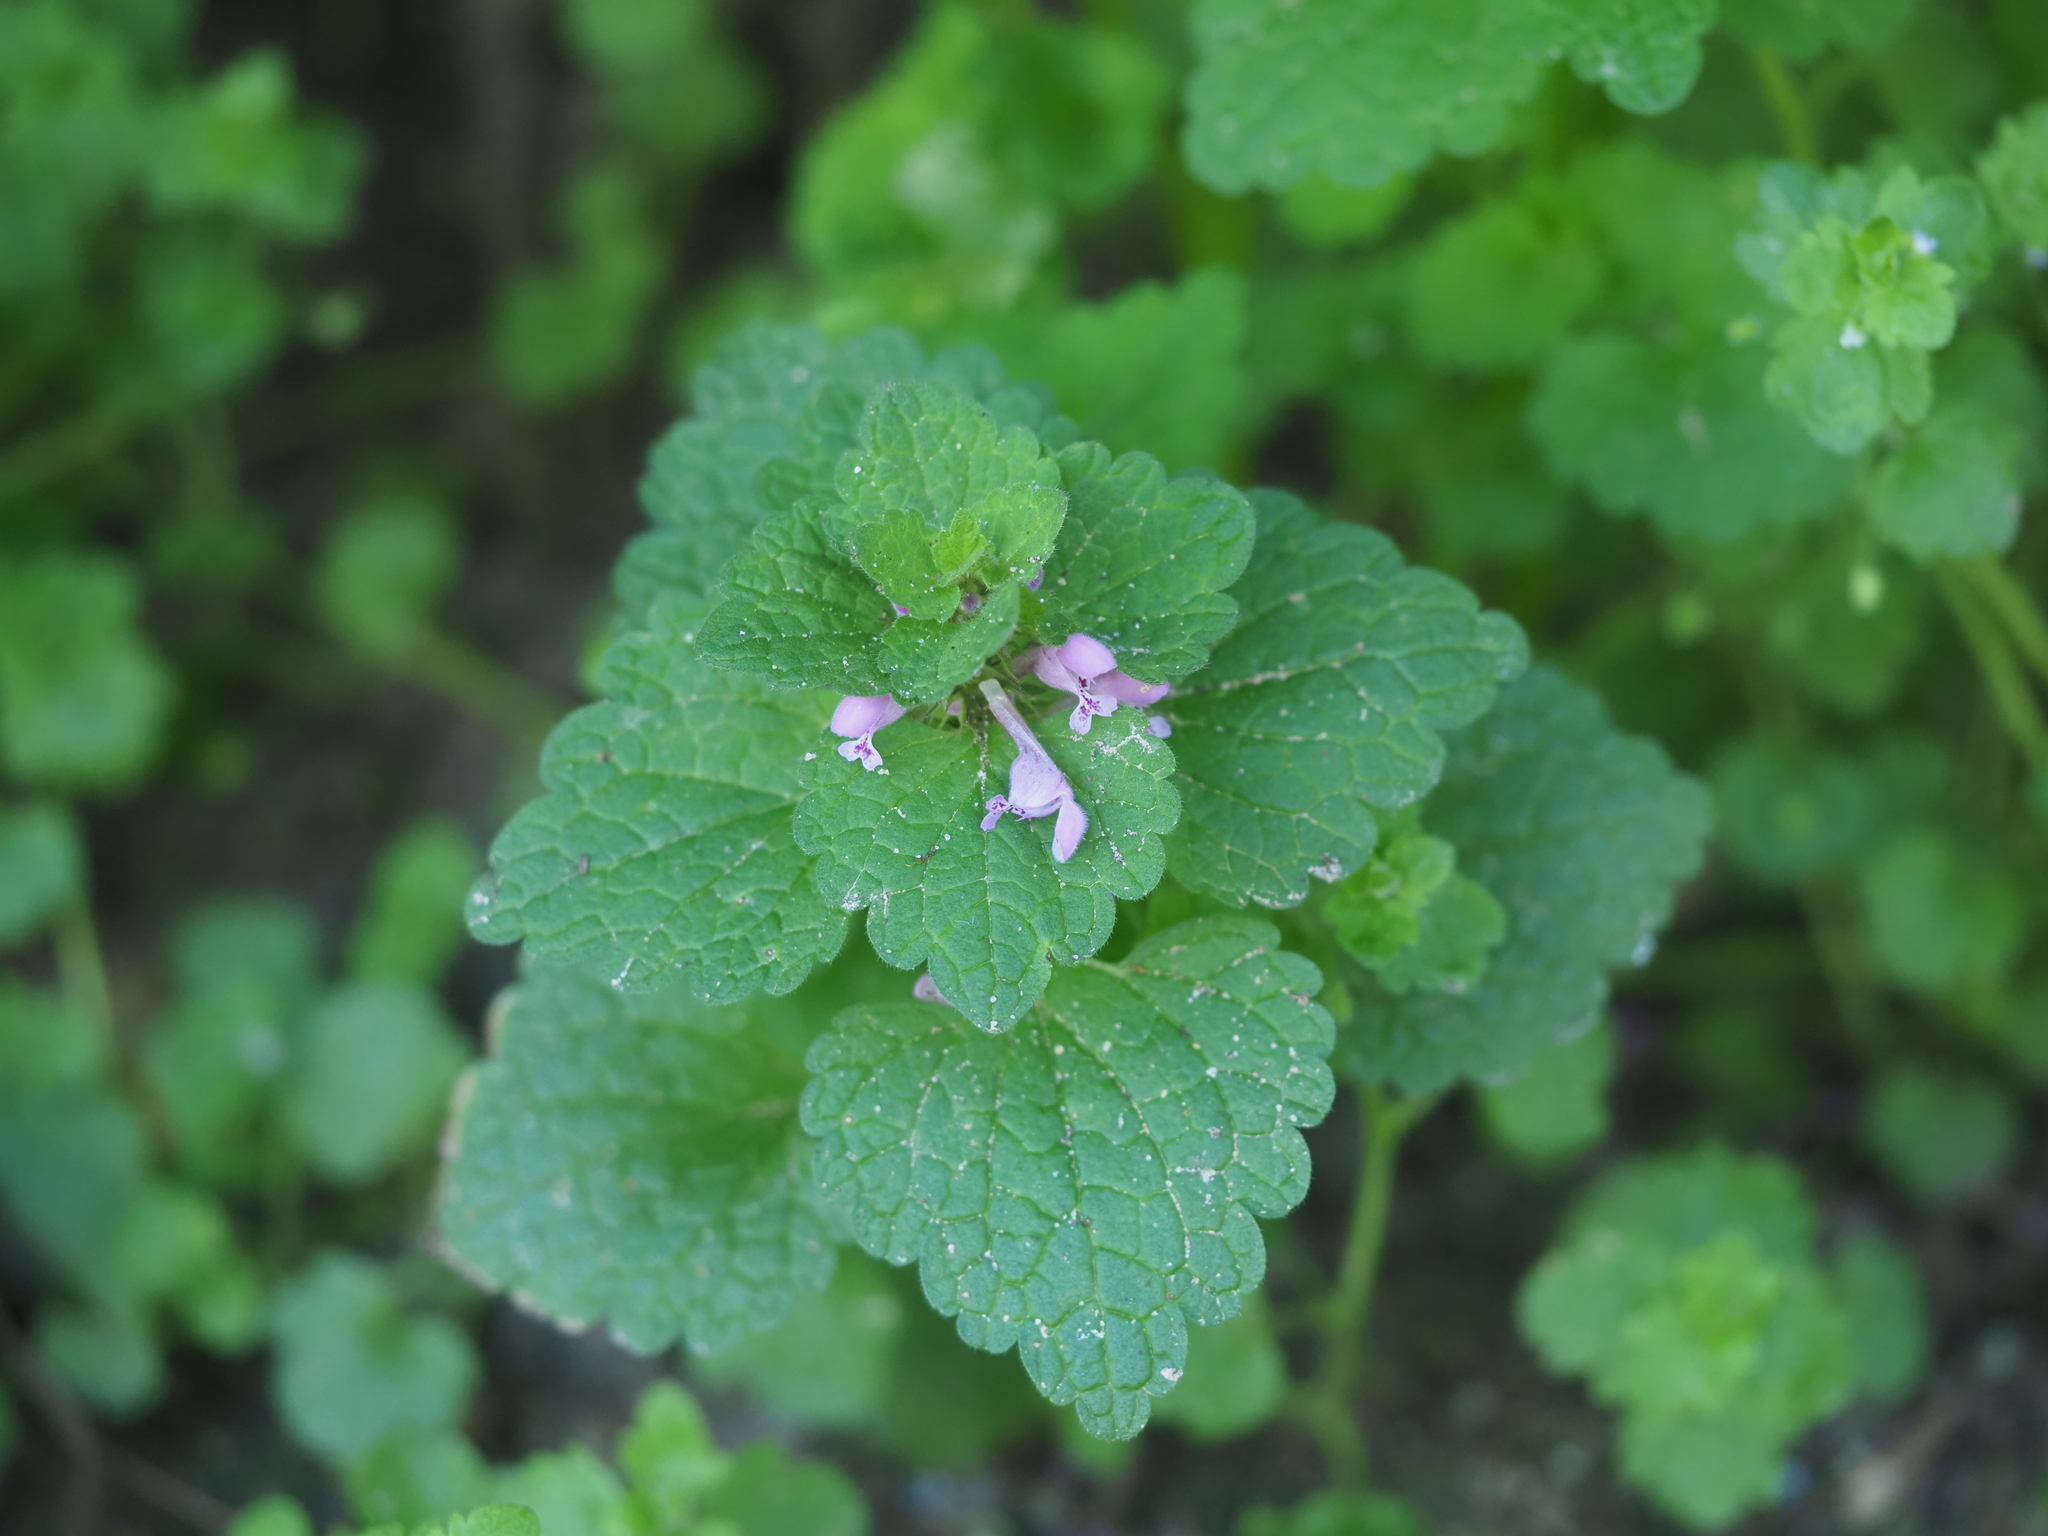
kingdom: Plantae
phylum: Tracheophyta
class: Magnoliopsida
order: Lamiales
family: Lamiaceae
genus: Lamium
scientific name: Lamium purpureum
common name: Red dead-nettle
